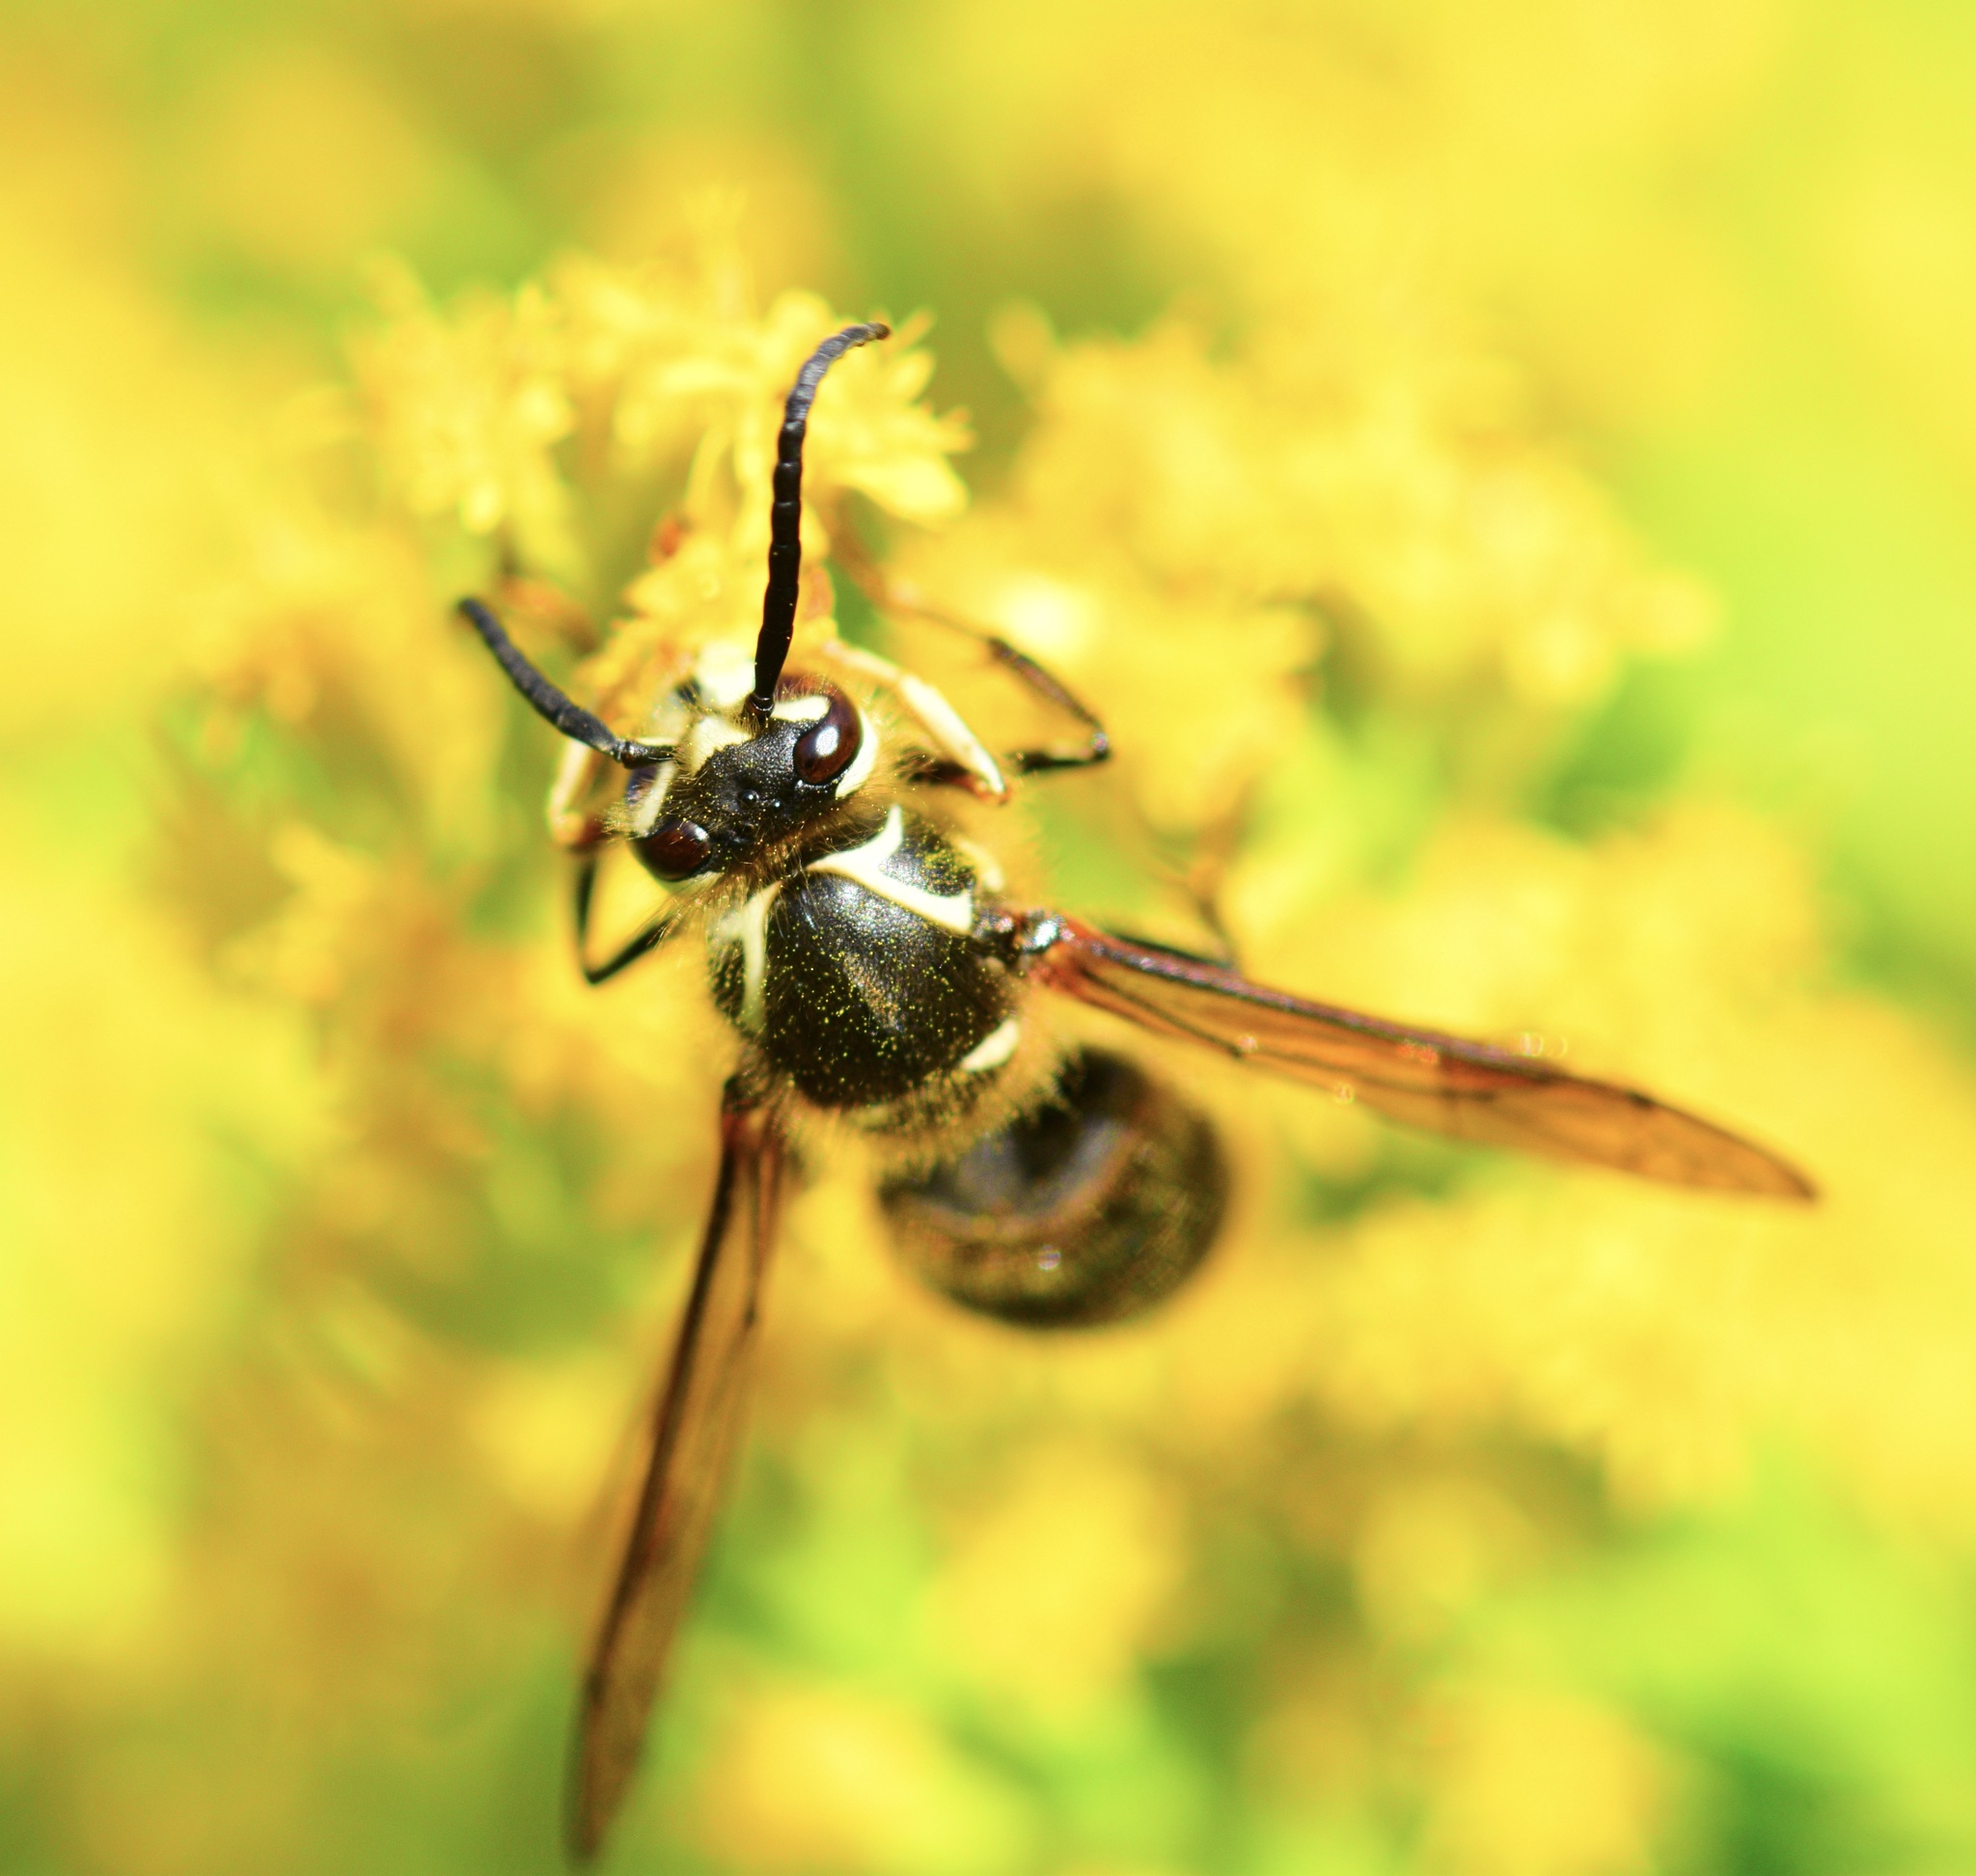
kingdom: Animalia
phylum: Arthropoda
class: Insecta
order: Hymenoptera
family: Vespidae
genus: Dolichovespula
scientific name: Dolichovespula maculata
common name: Bald-faced hornet
